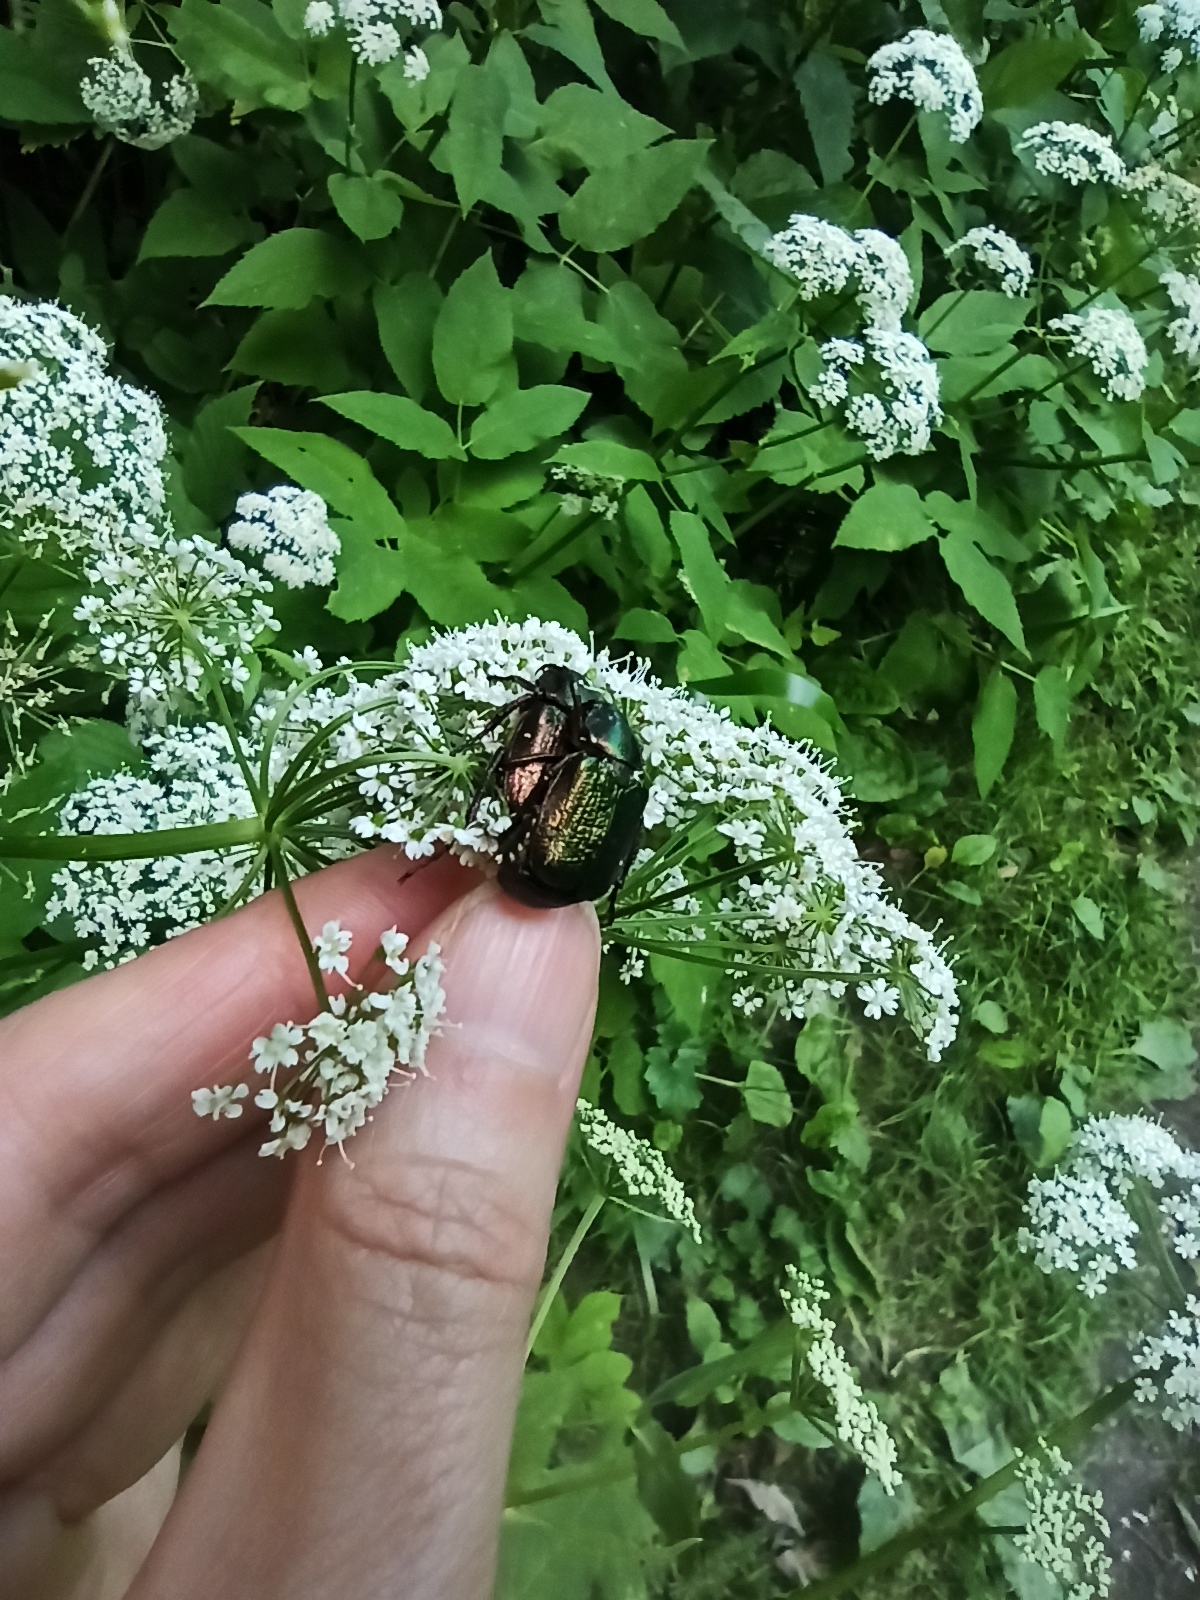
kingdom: Animalia
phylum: Arthropoda
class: Insecta
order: Coleoptera
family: Scarabaeidae
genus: Gnorimus
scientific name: Gnorimus nobilis
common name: Noble chafer
